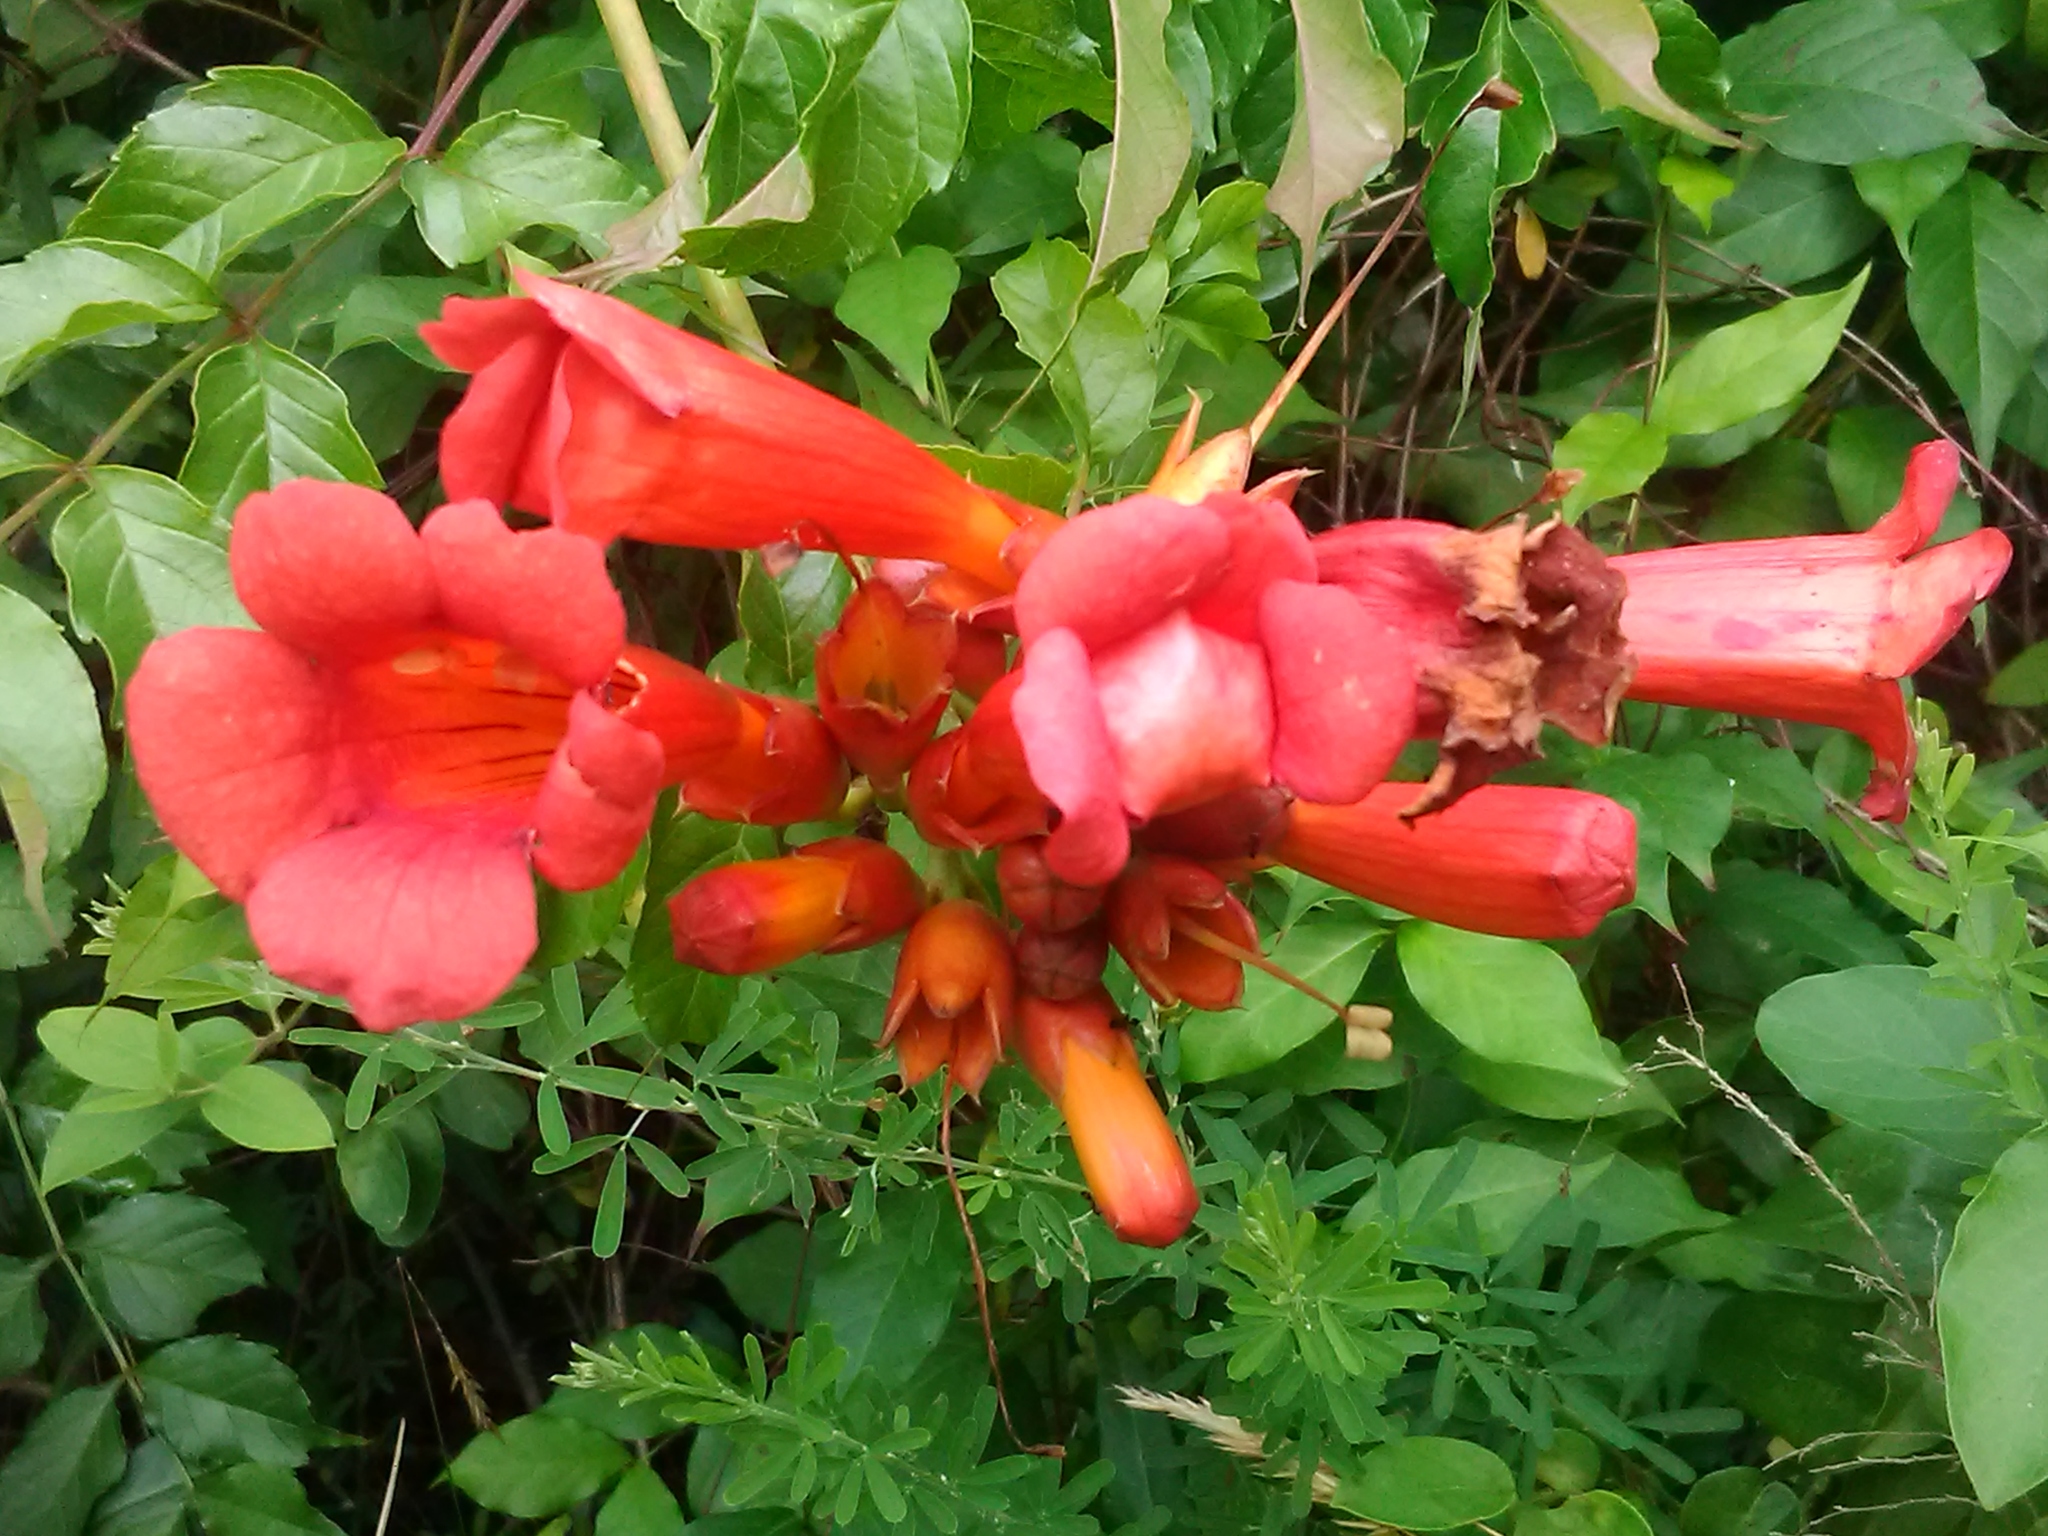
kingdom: Plantae
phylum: Tracheophyta
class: Magnoliopsida
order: Lamiales
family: Bignoniaceae
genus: Campsis
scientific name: Campsis radicans
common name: Trumpet-creeper
